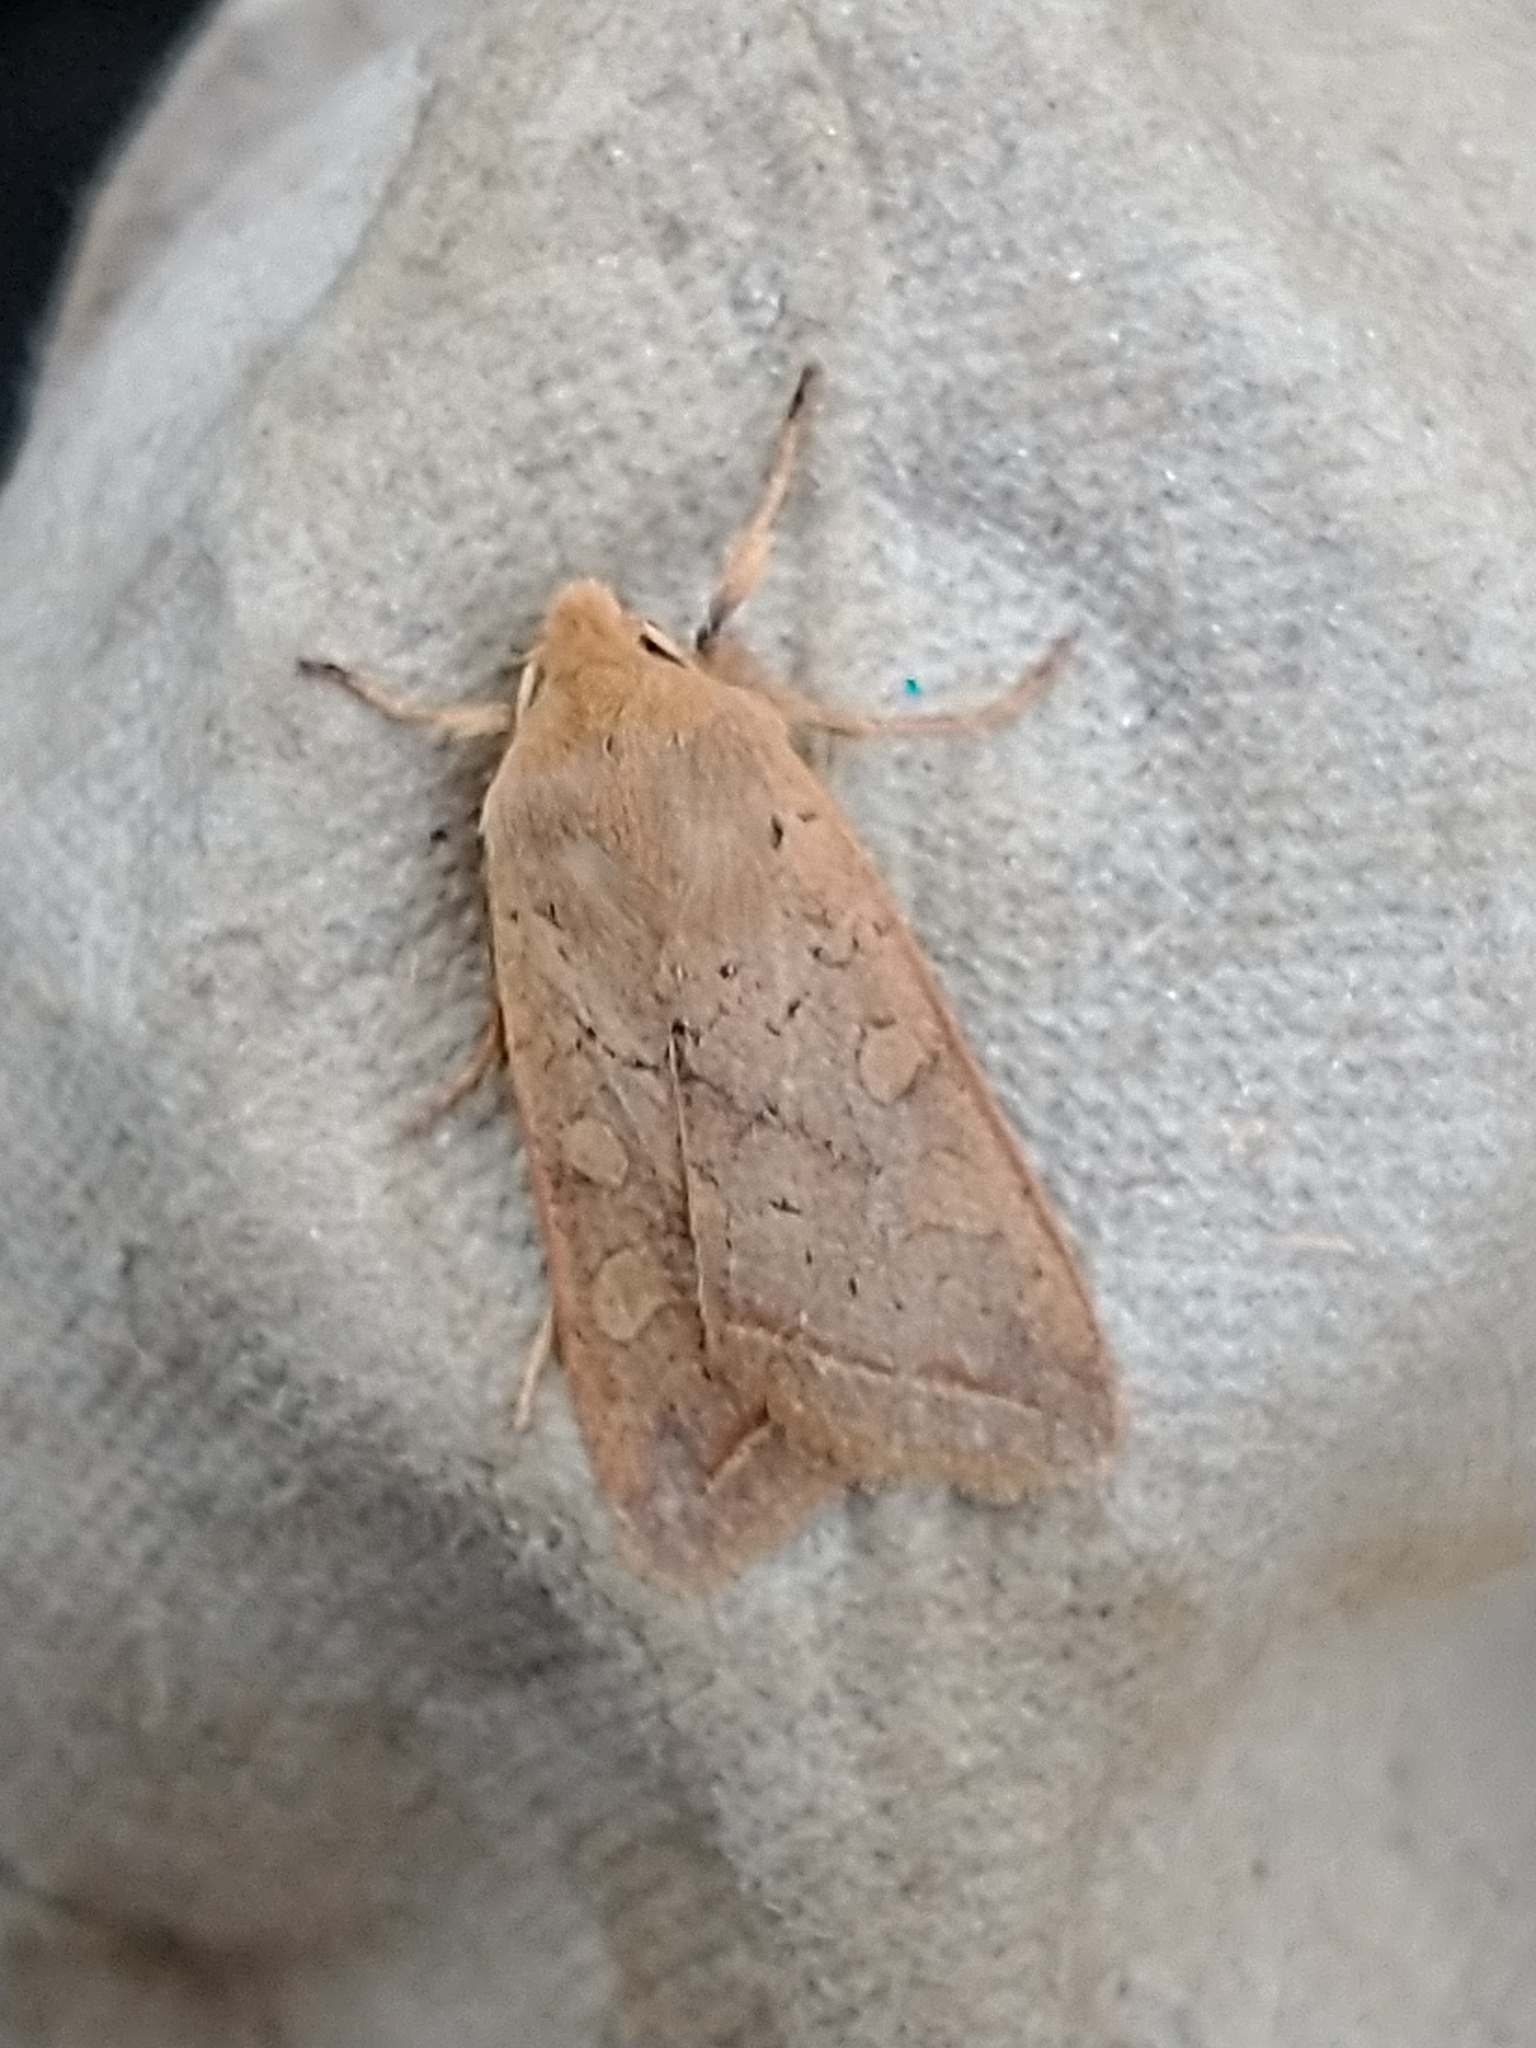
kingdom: Animalia
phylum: Arthropoda
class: Insecta
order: Lepidoptera
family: Noctuidae
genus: Agrochola
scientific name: Agrochola macilenta
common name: Yellow-line quaker
